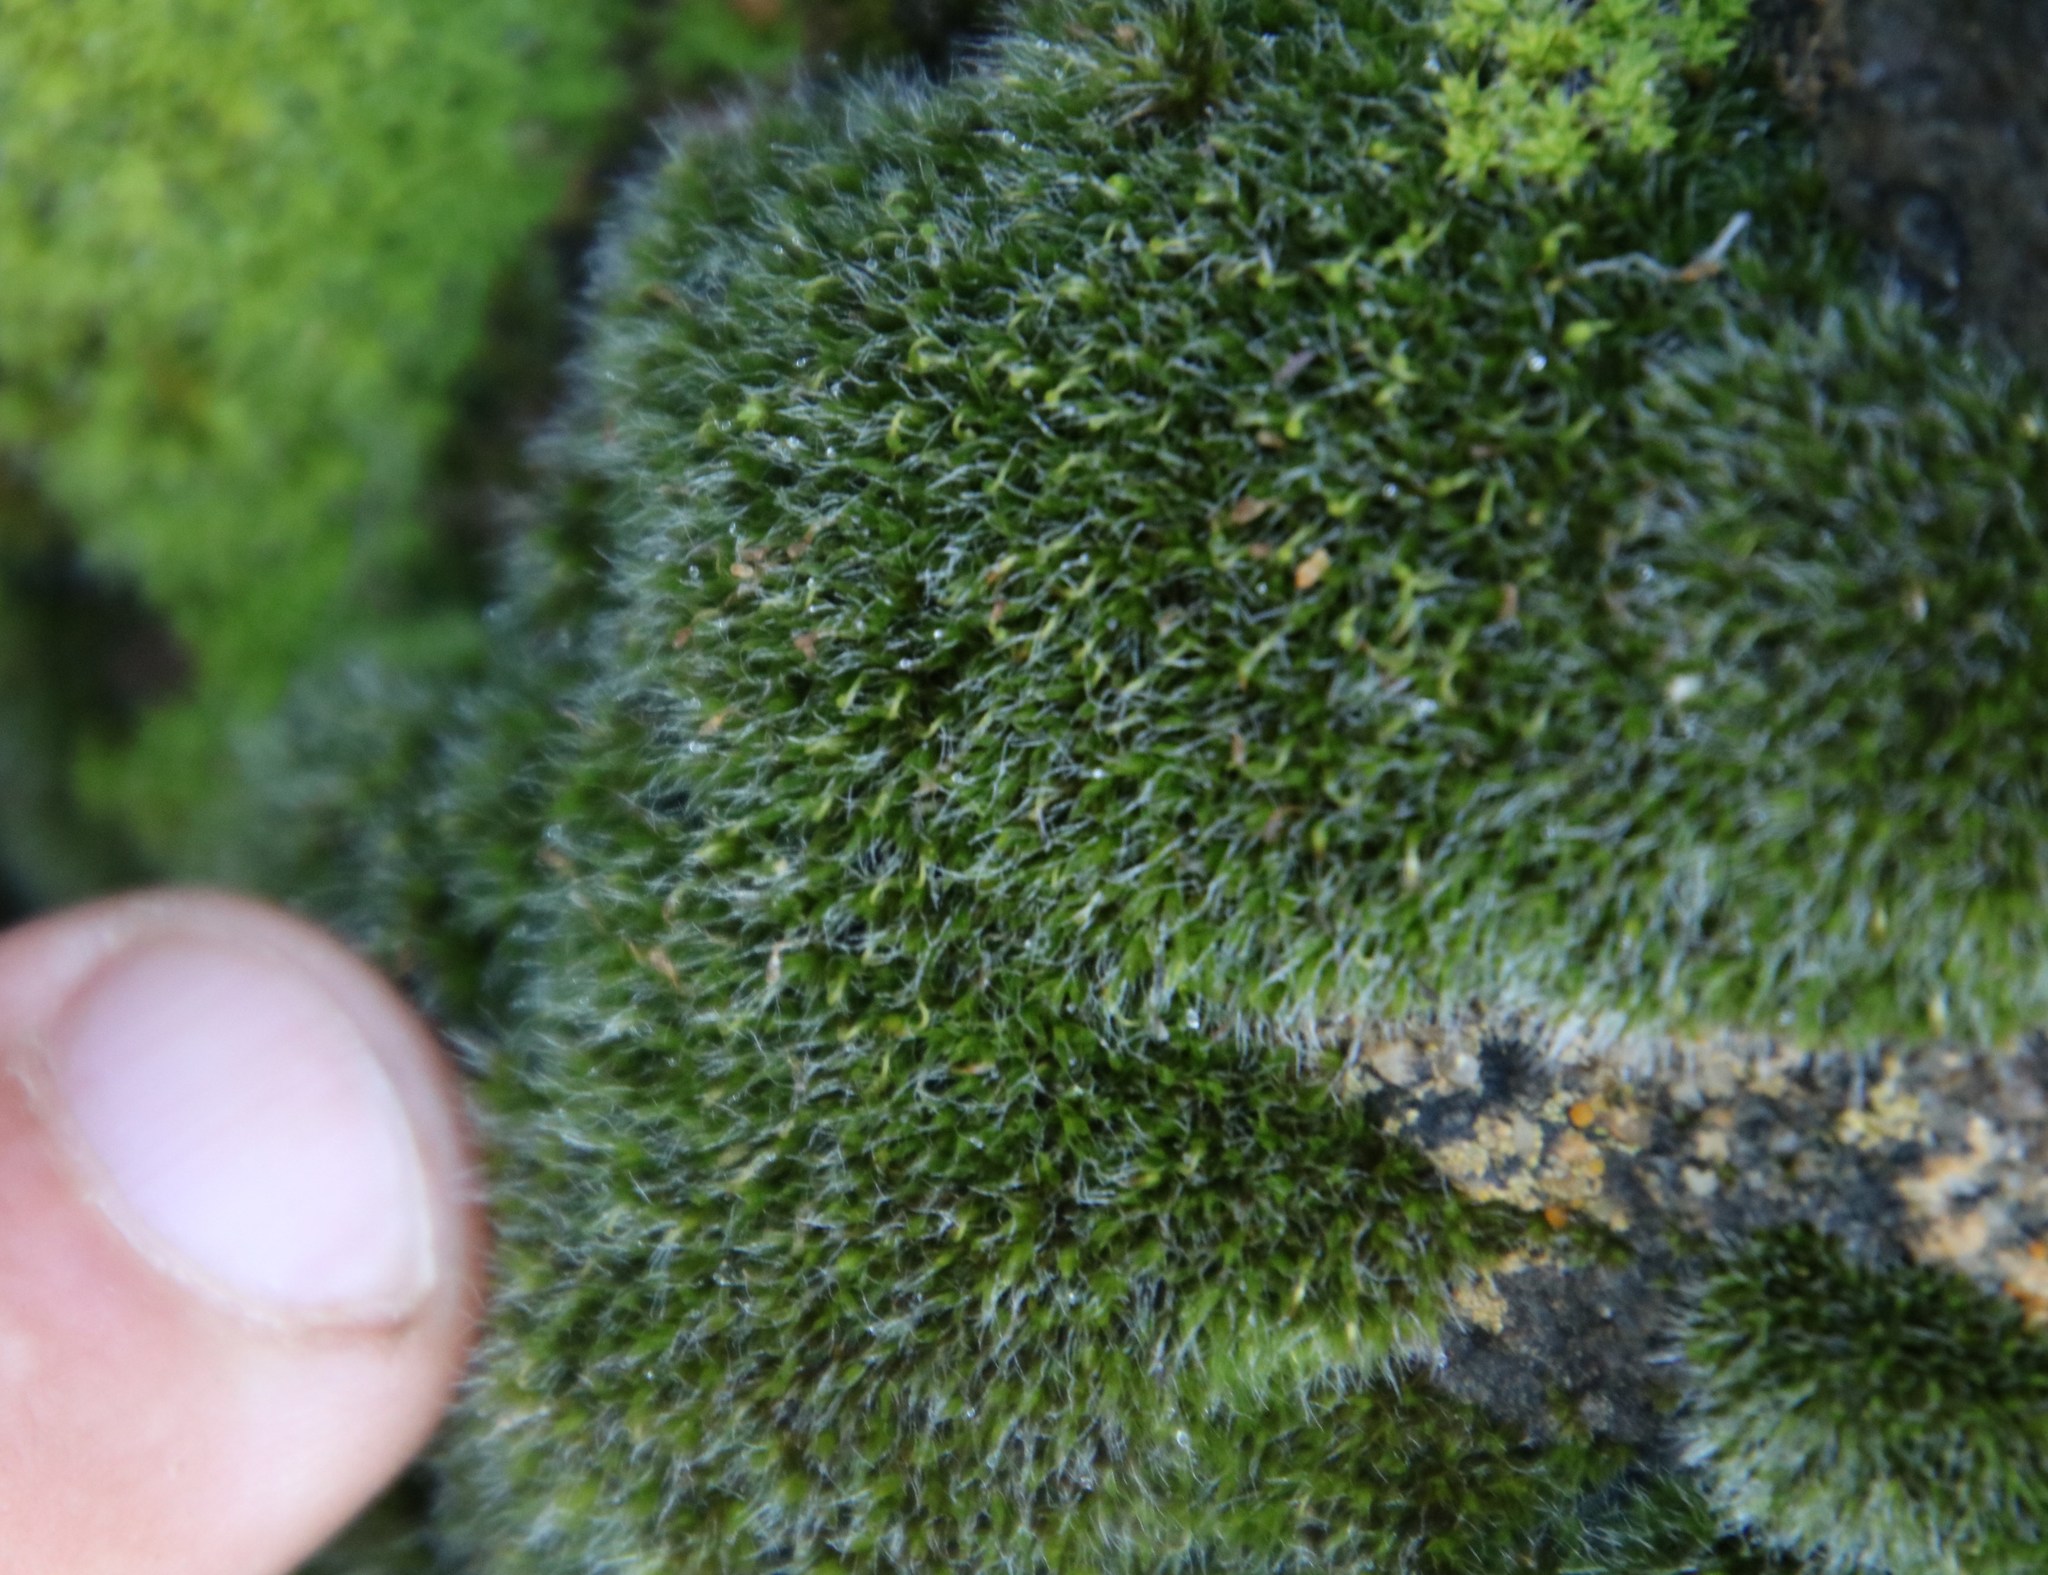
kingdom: Plantae
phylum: Bryophyta
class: Bryopsida
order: Grimmiales
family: Grimmiaceae
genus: Grimmia
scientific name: Grimmia pulvinata
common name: Grey-cushioned grimmia
